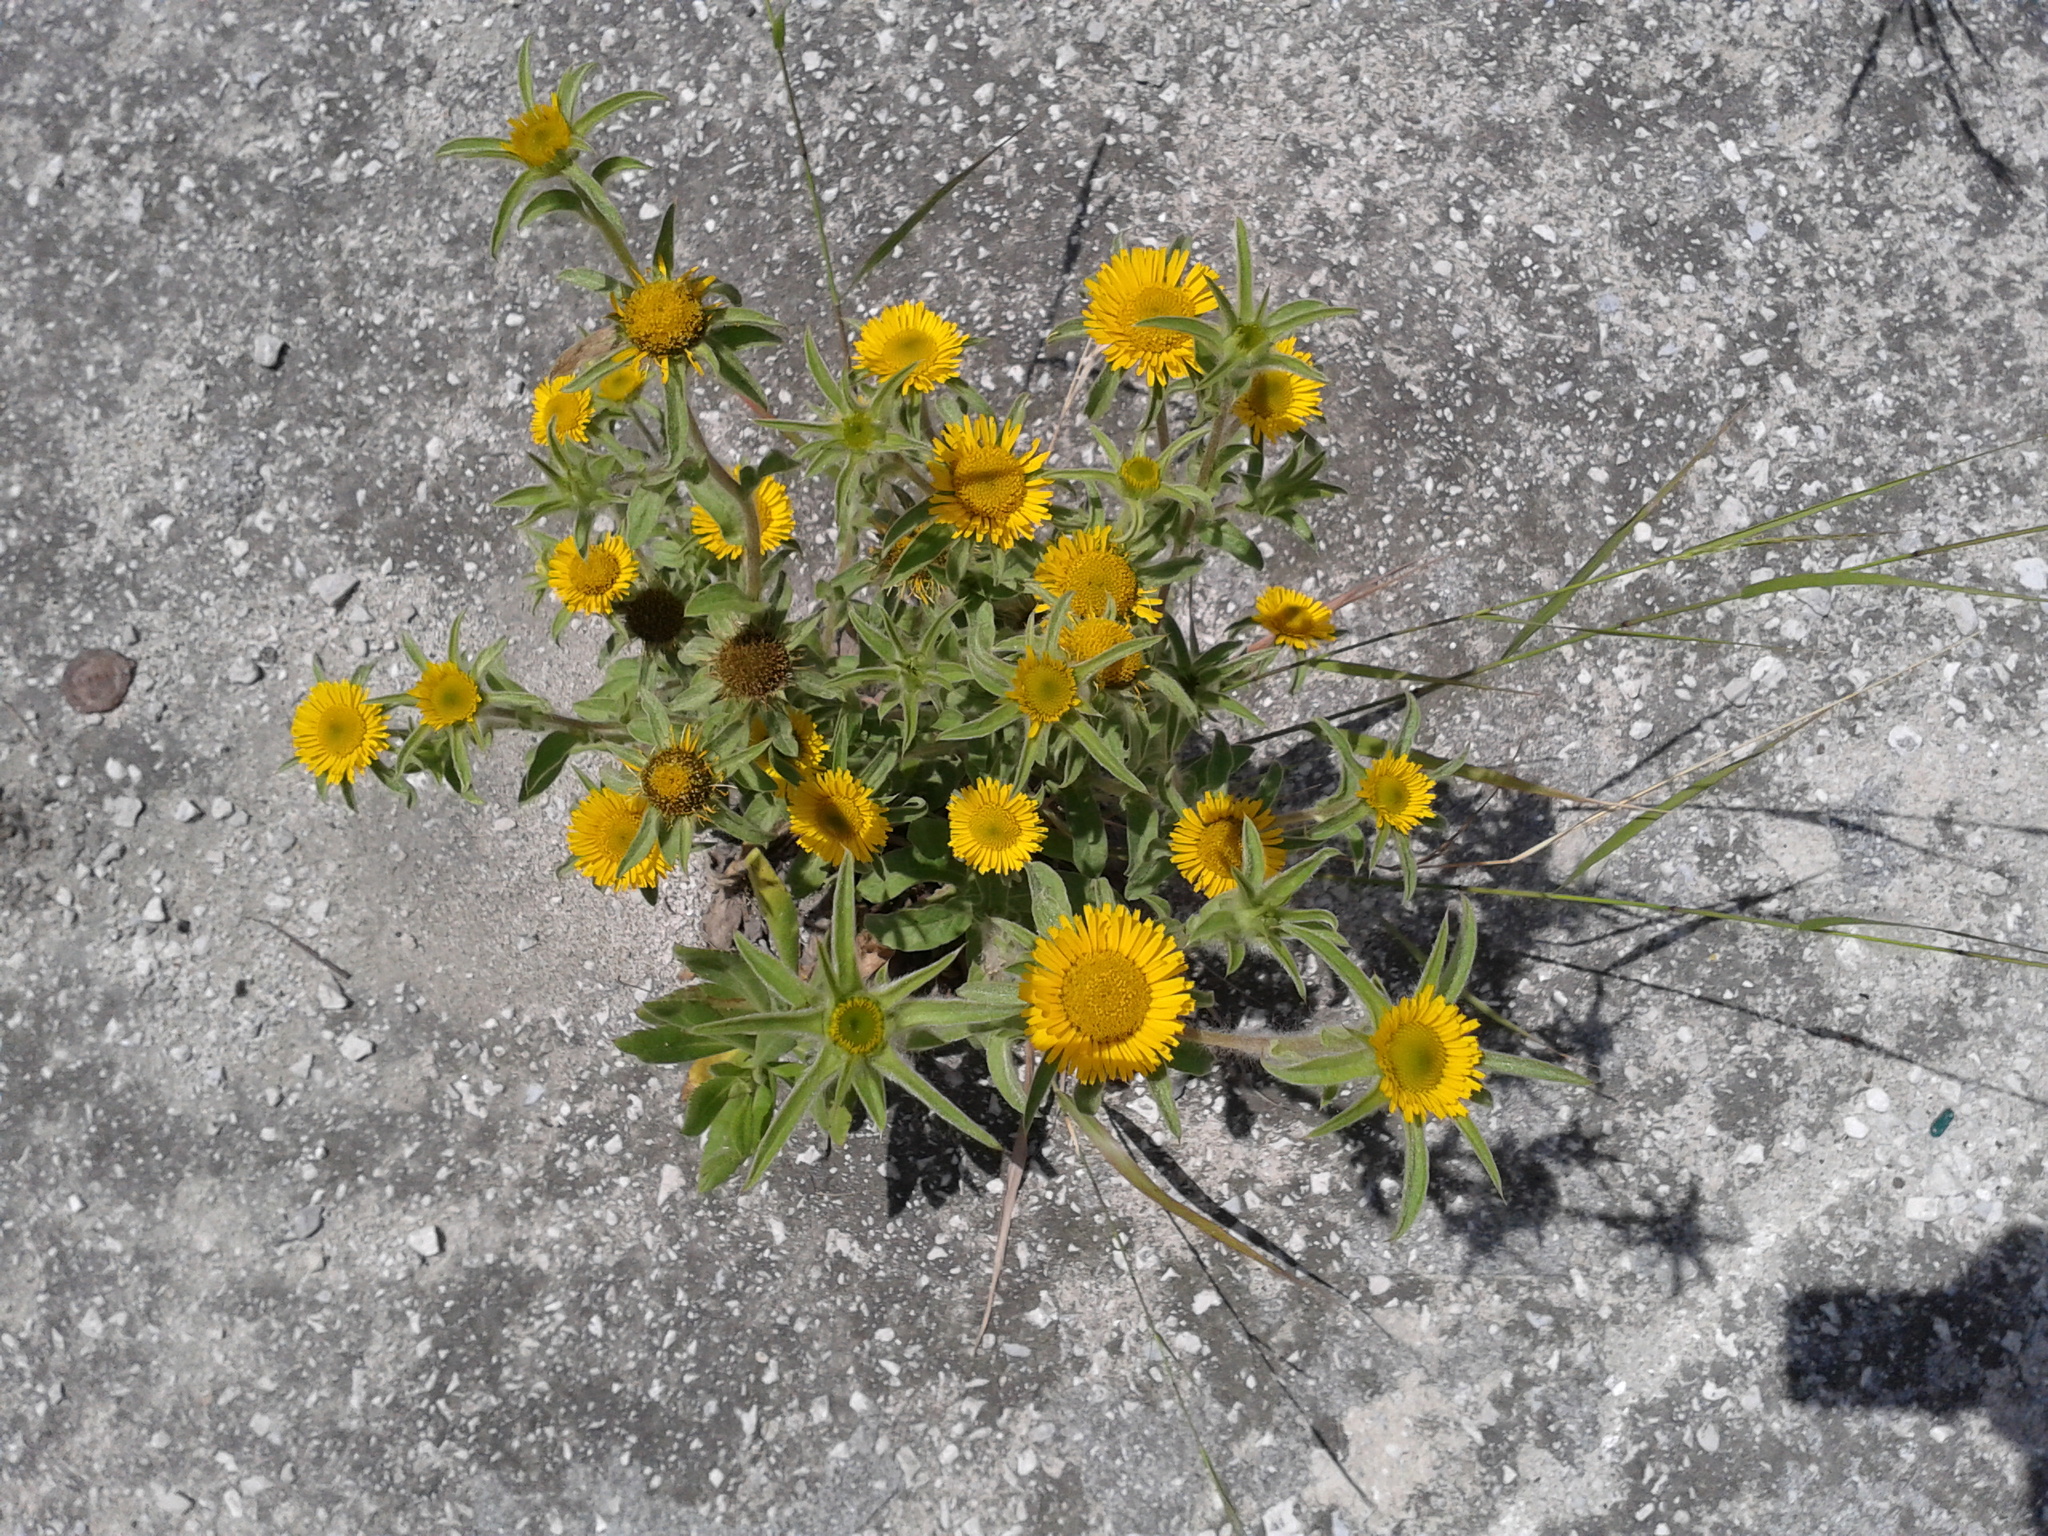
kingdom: Plantae
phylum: Tracheophyta
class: Magnoliopsida
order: Asterales
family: Asteraceae
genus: Pallenis
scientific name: Pallenis spinosa
